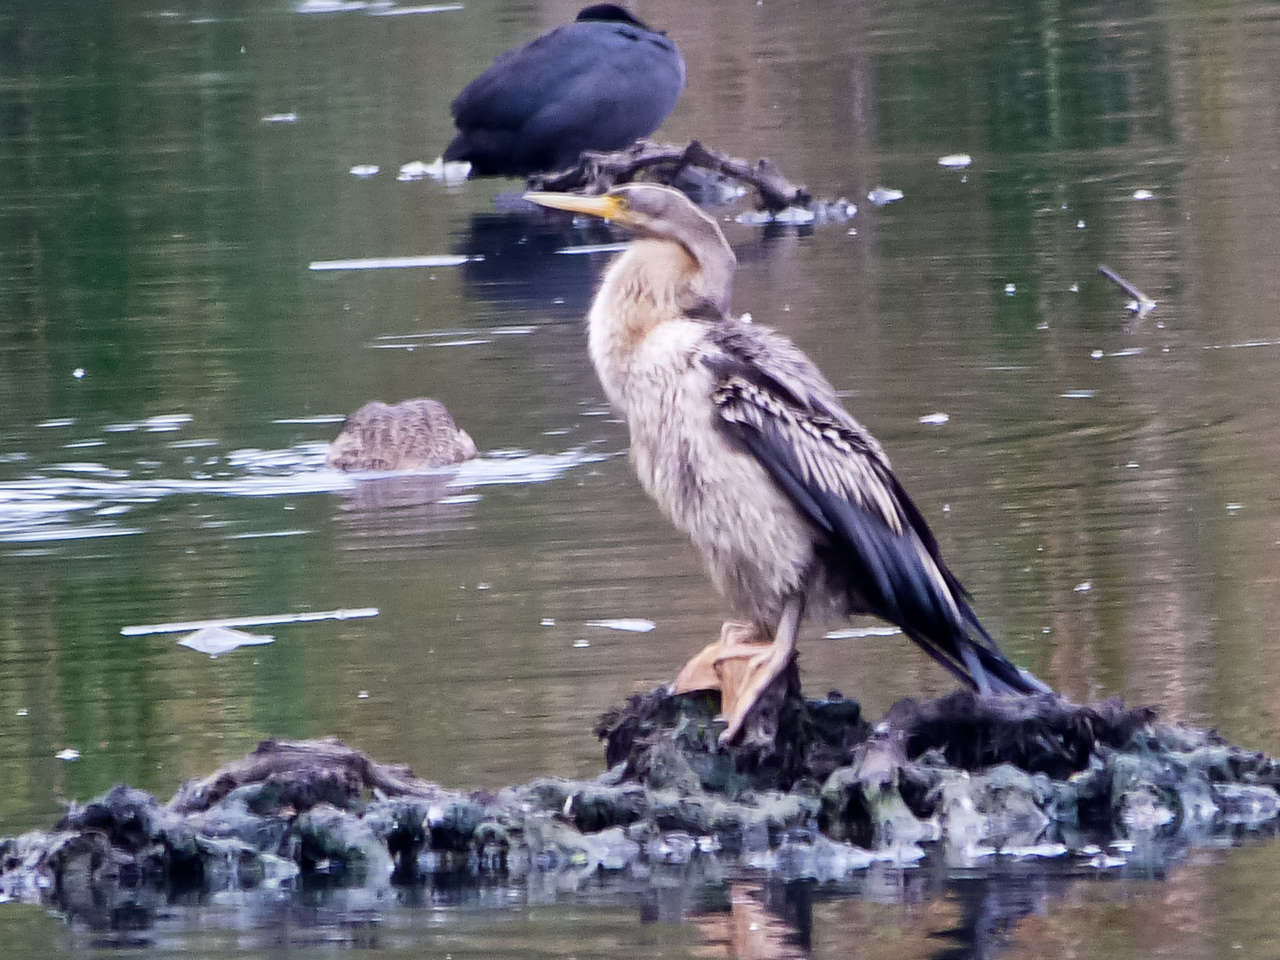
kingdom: Animalia
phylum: Chordata
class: Aves
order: Suliformes
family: Anhingidae
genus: Anhinga
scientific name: Anhinga novaehollandiae
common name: Australasian darter
